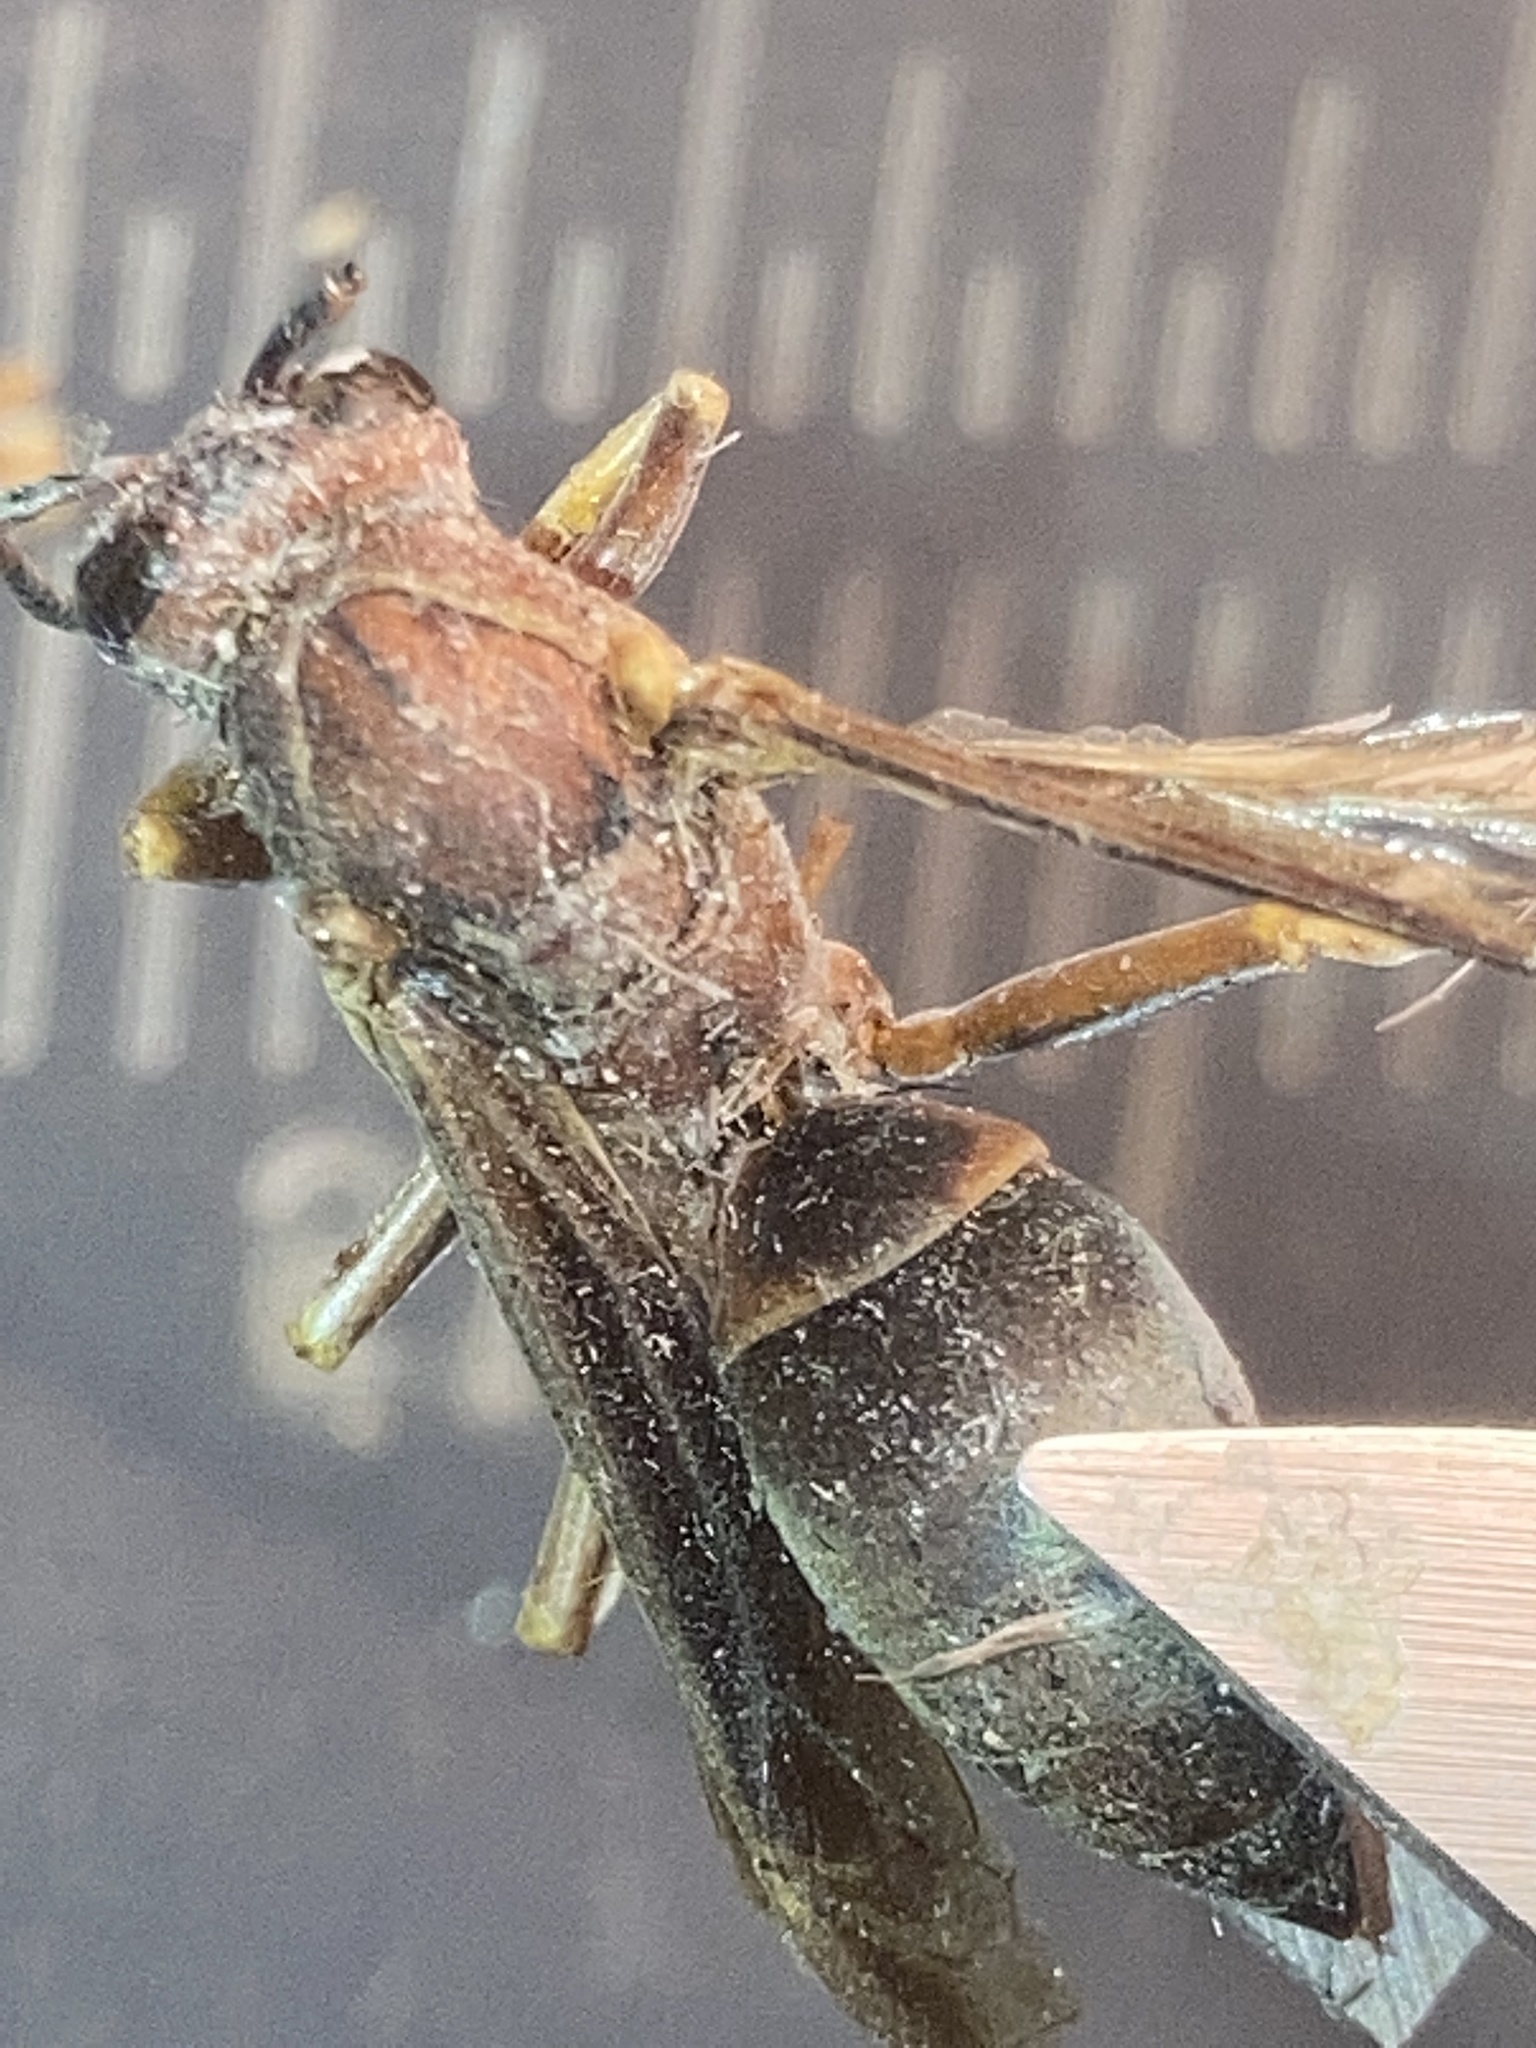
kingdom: Animalia
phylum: Arthropoda
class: Insecta
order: Hymenoptera
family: Eumenidae
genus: Polistes
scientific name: Polistes metricus
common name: Metric paper wasp
